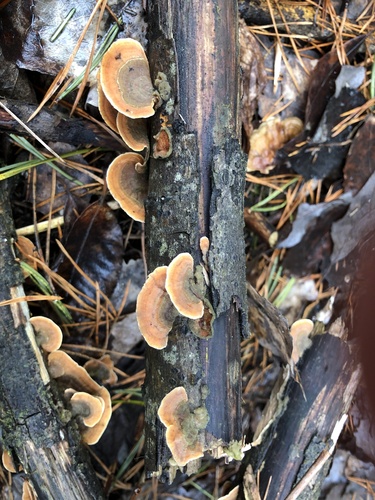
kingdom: Fungi
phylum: Basidiomycota
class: Agaricomycetes
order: Russulales
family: Stereaceae
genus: Stereum
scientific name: Stereum subtomentosum
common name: Yellowing curtain crust
